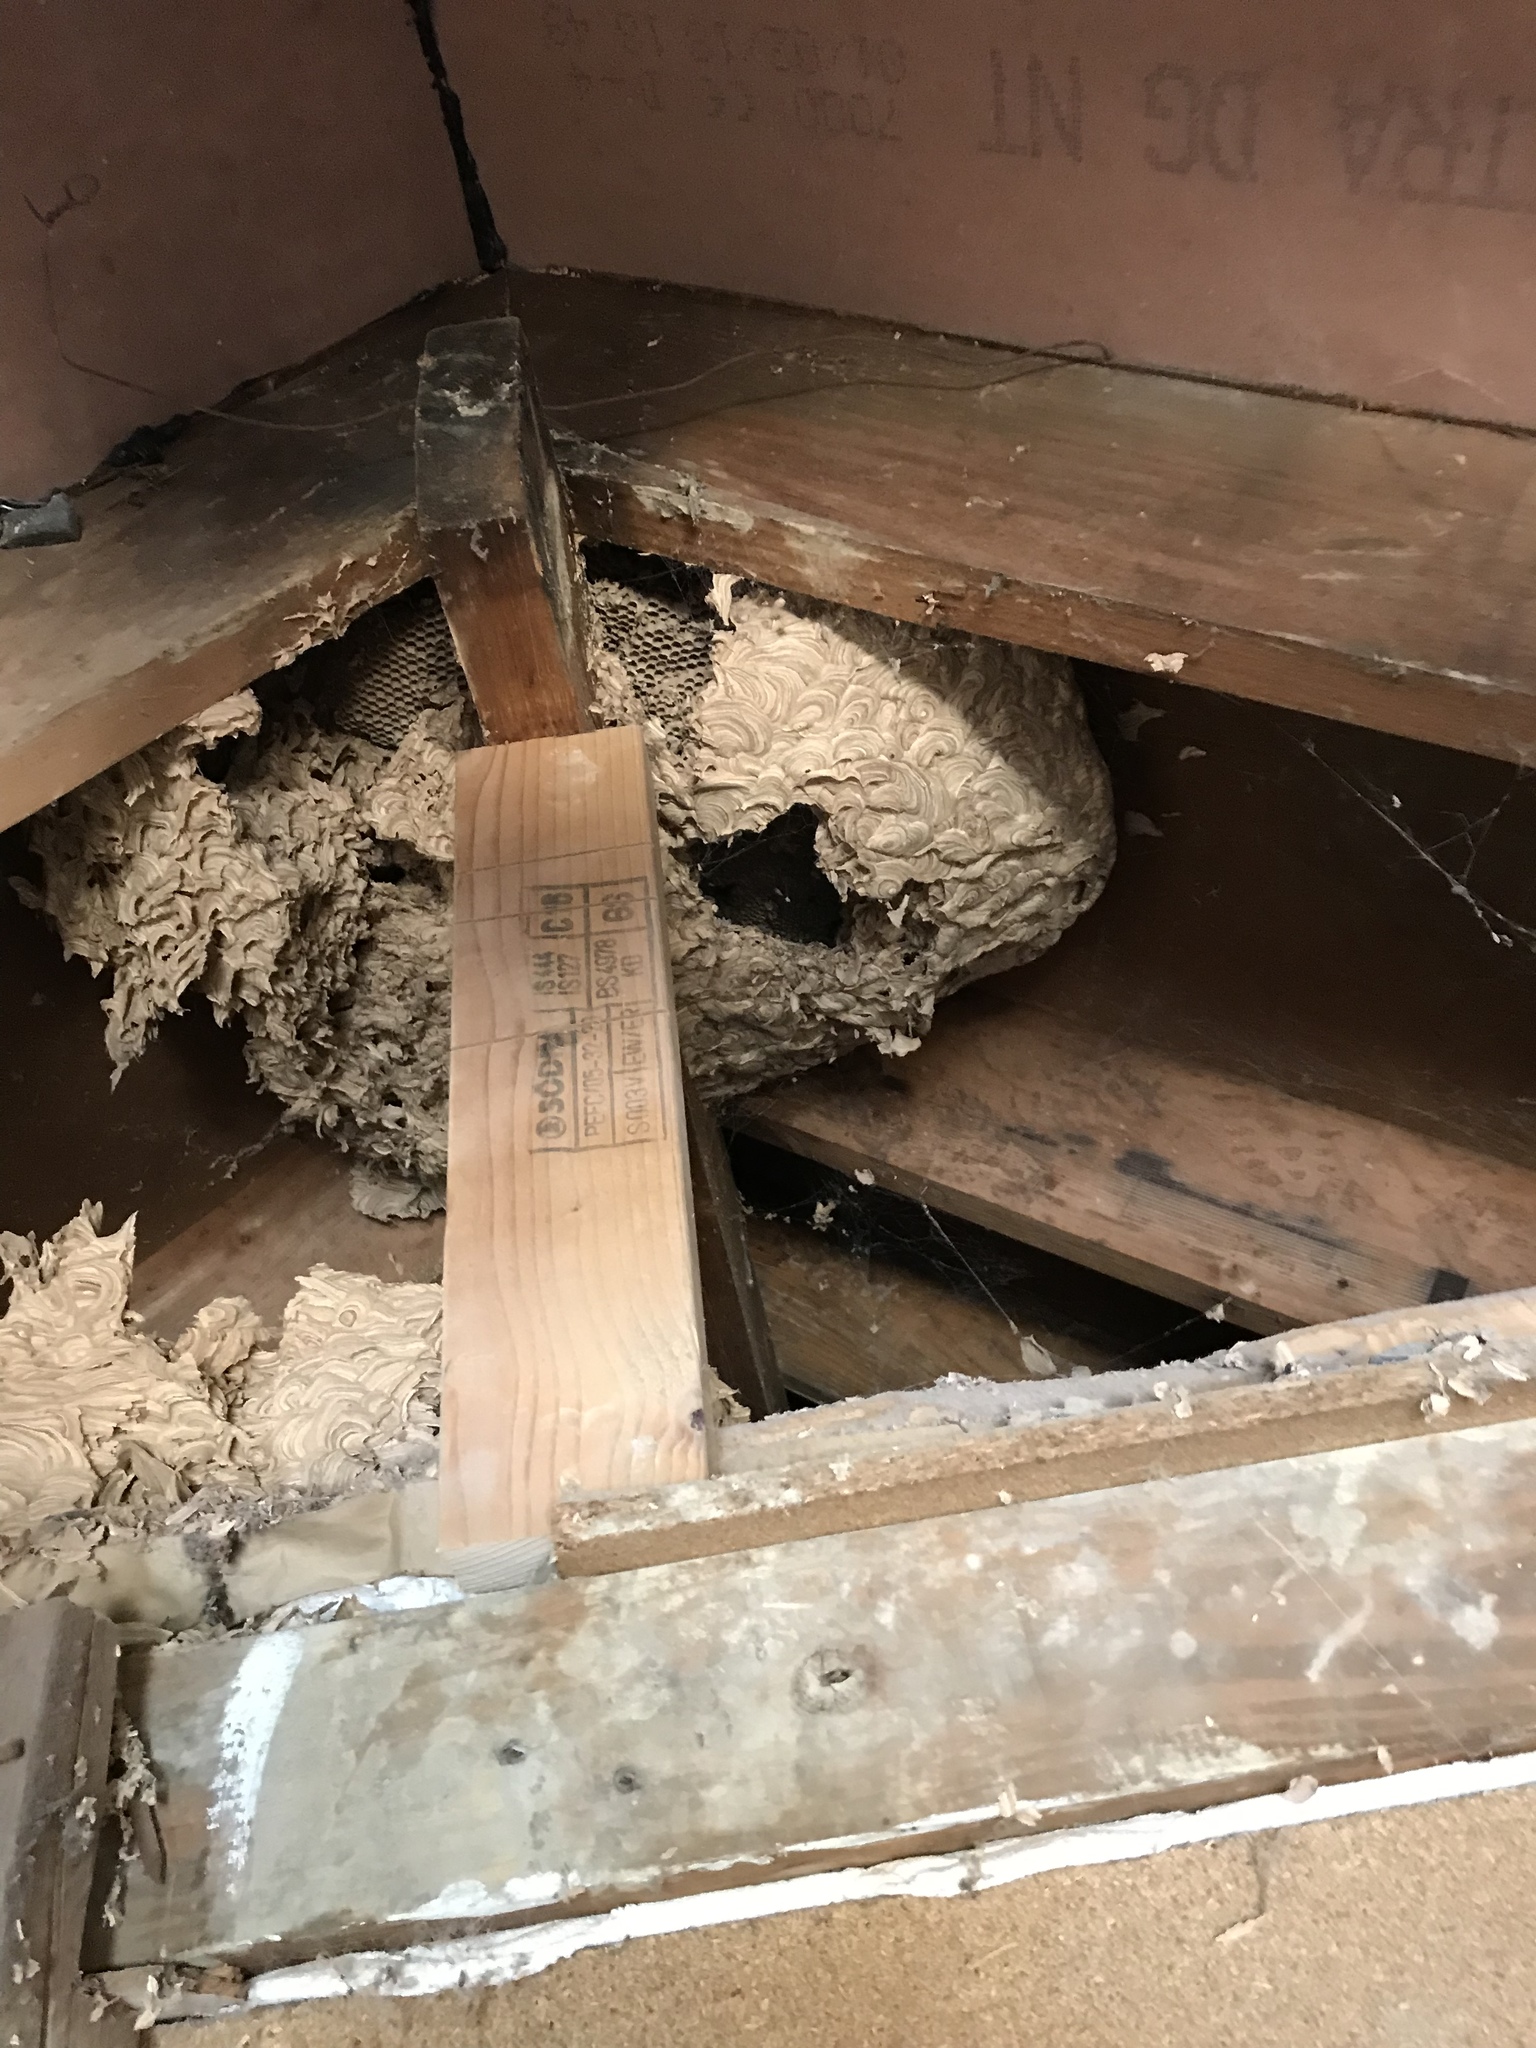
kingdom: Animalia
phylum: Arthropoda
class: Insecta
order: Hymenoptera
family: Vespidae
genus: Vespa
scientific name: Vespa crabro
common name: Hornet
